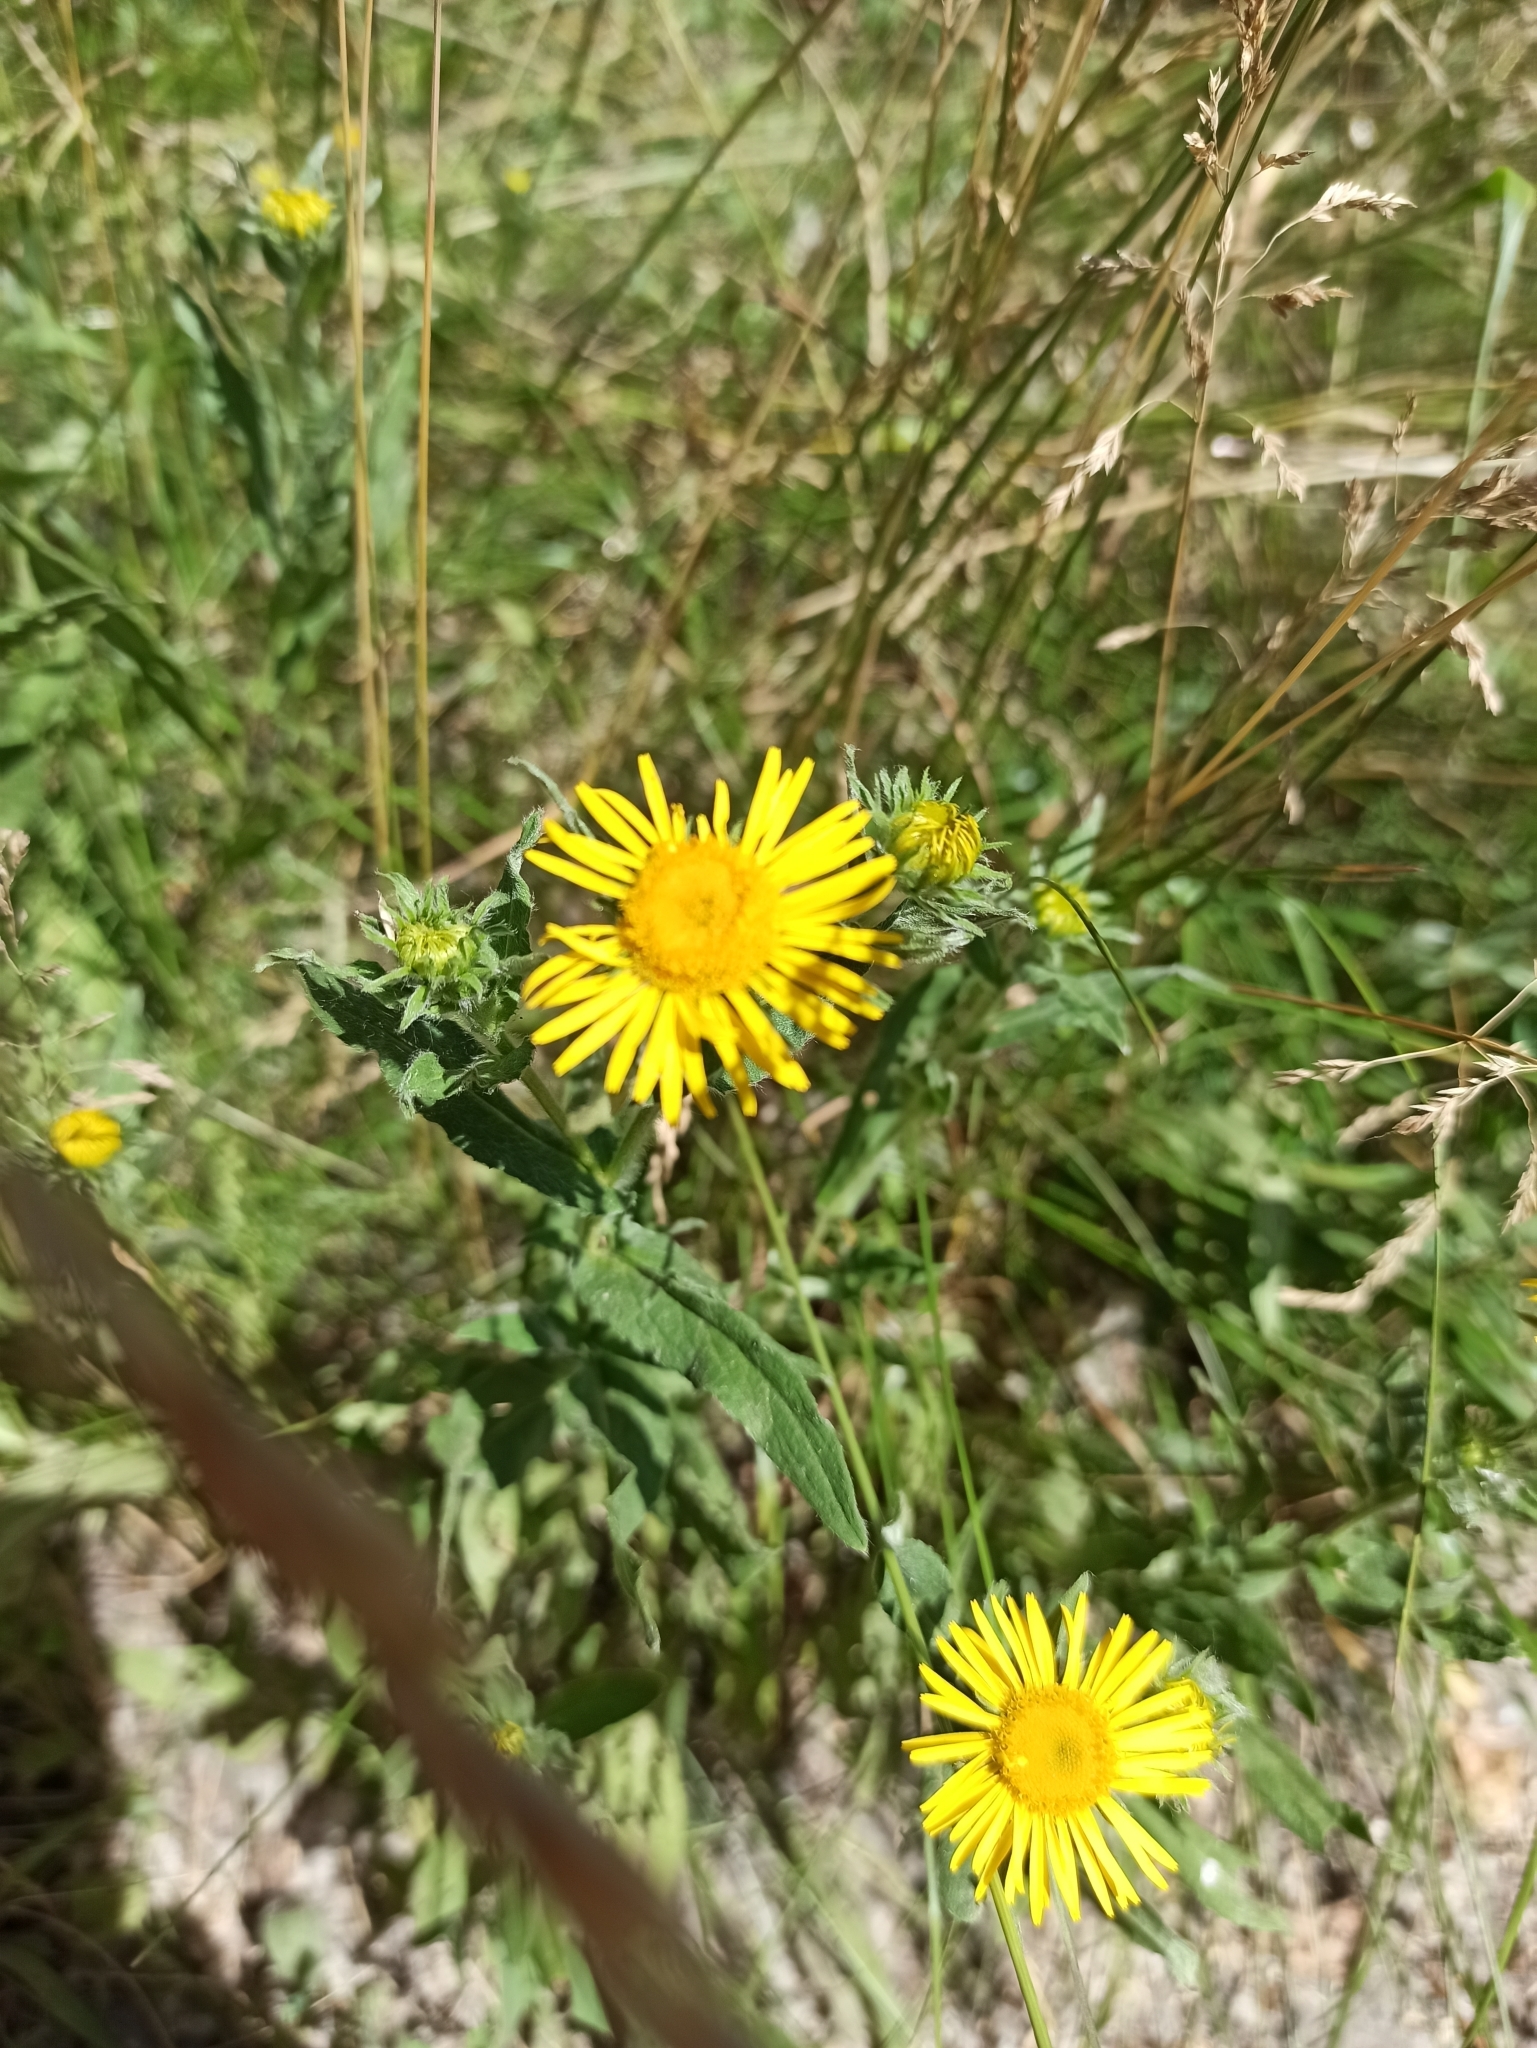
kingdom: Plantae
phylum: Tracheophyta
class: Magnoliopsida
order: Asterales
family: Asteraceae
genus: Pentanema
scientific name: Pentanema britannicum
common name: British elecampane
